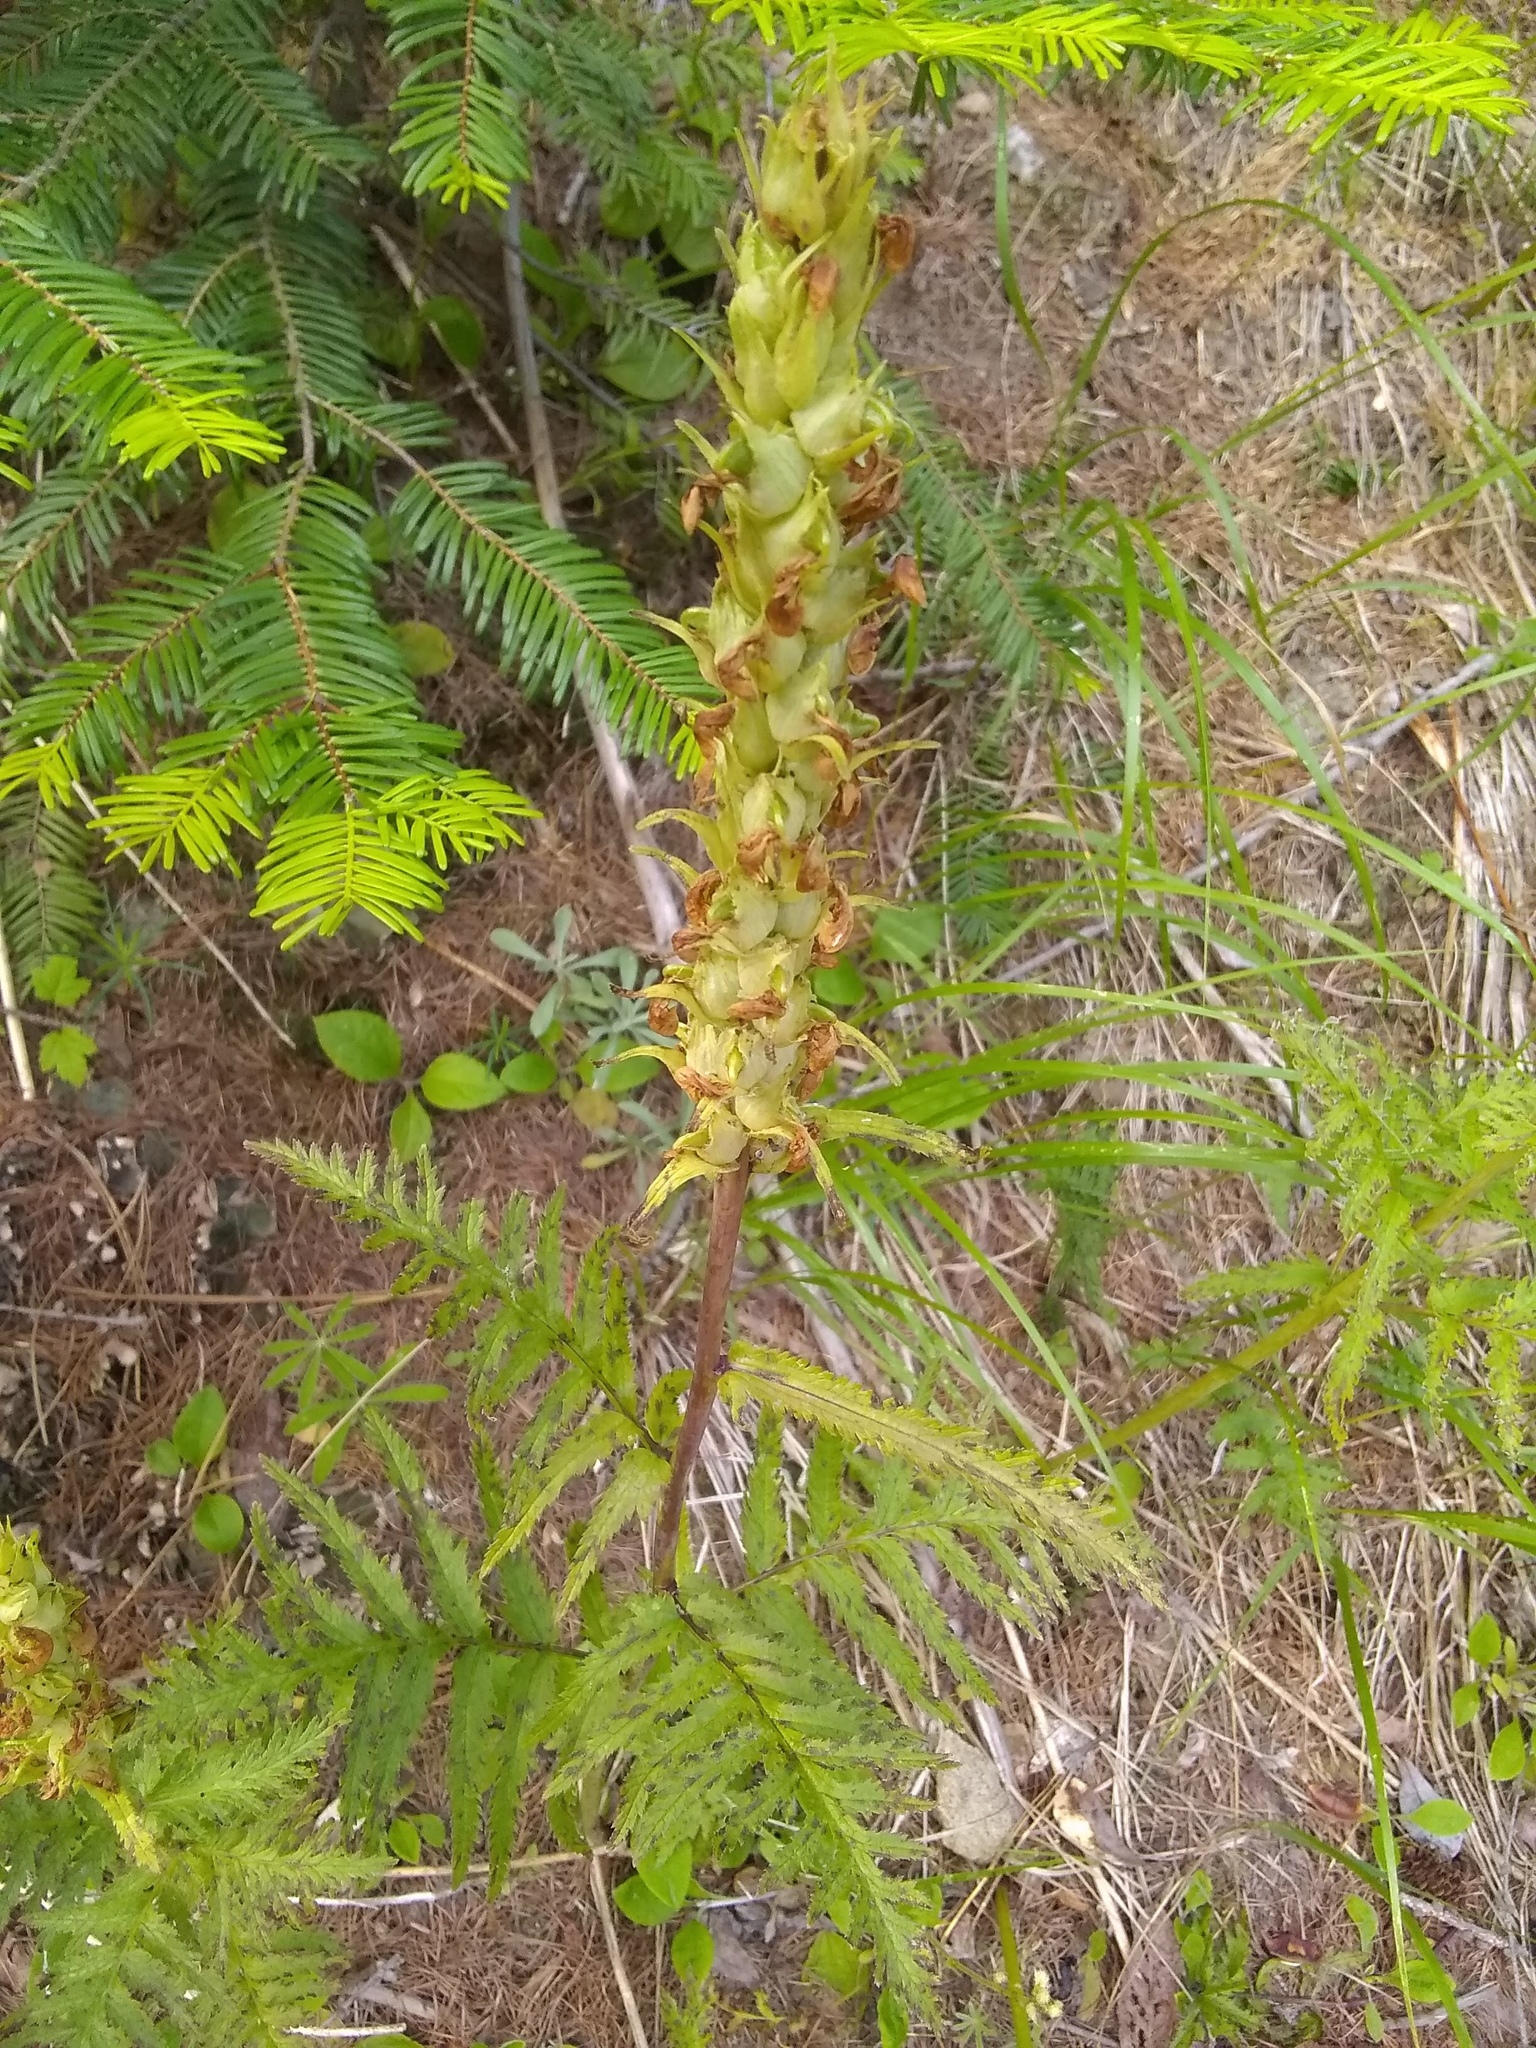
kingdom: Plantae
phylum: Tracheophyta
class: Magnoliopsida
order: Lamiales
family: Orobanchaceae
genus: Pedicularis
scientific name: Pedicularis bracteosa
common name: Bracted lousewort
